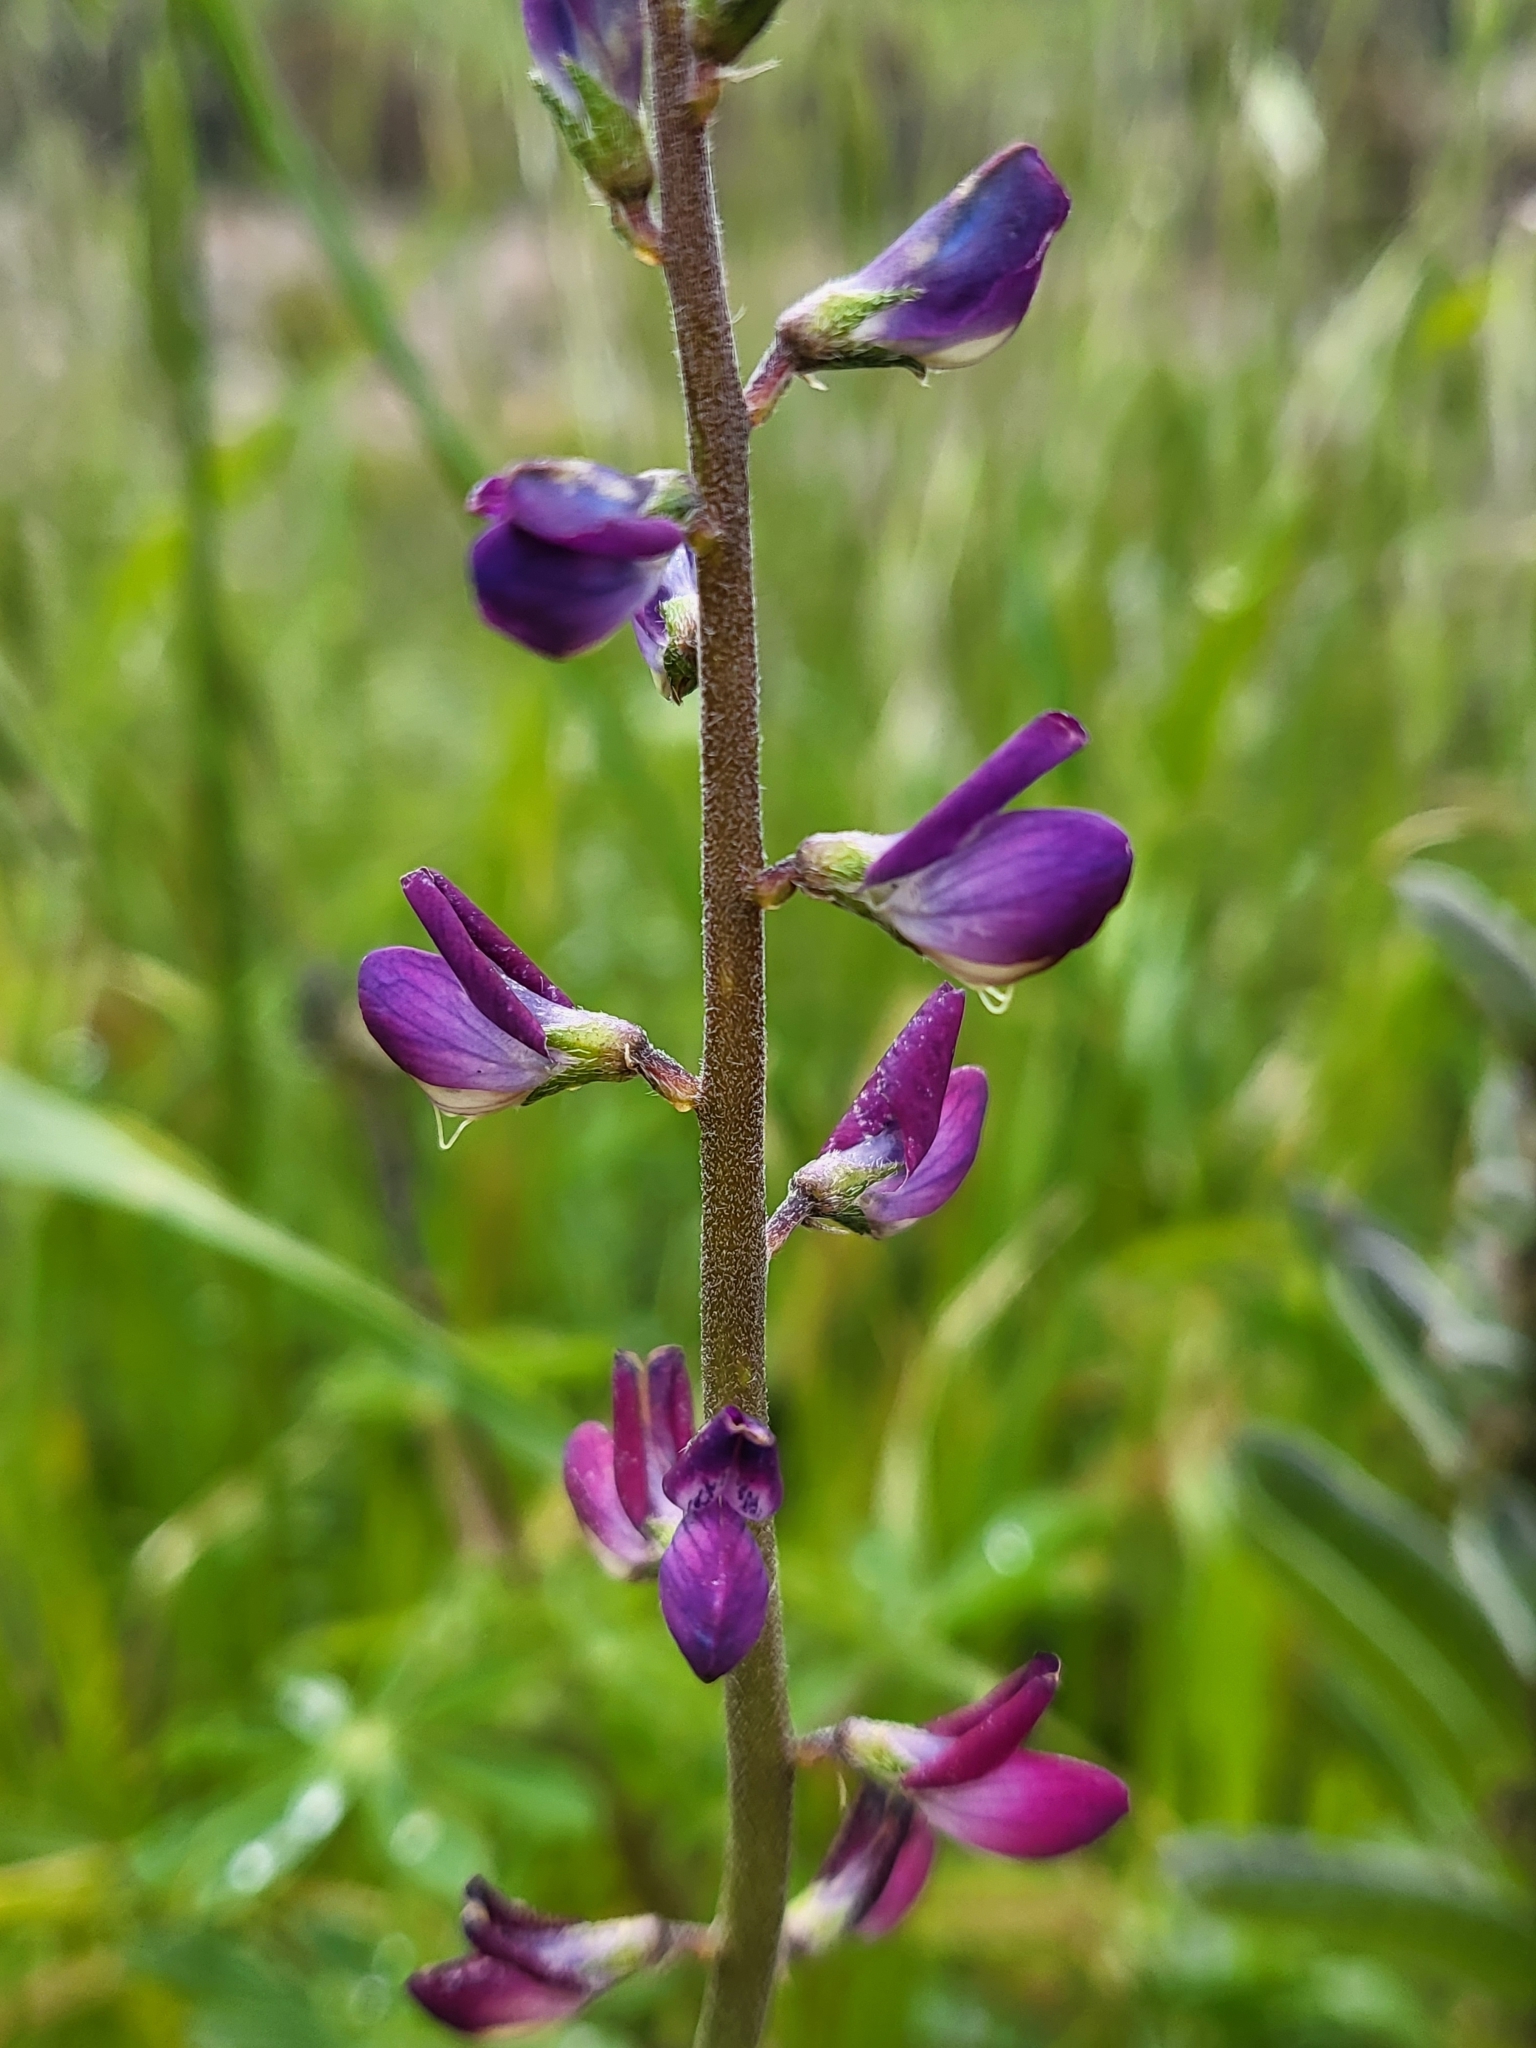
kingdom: Plantae
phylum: Tracheophyta
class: Magnoliopsida
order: Fabales
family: Fabaceae
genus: Lupinus
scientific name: Lupinus truncatus
